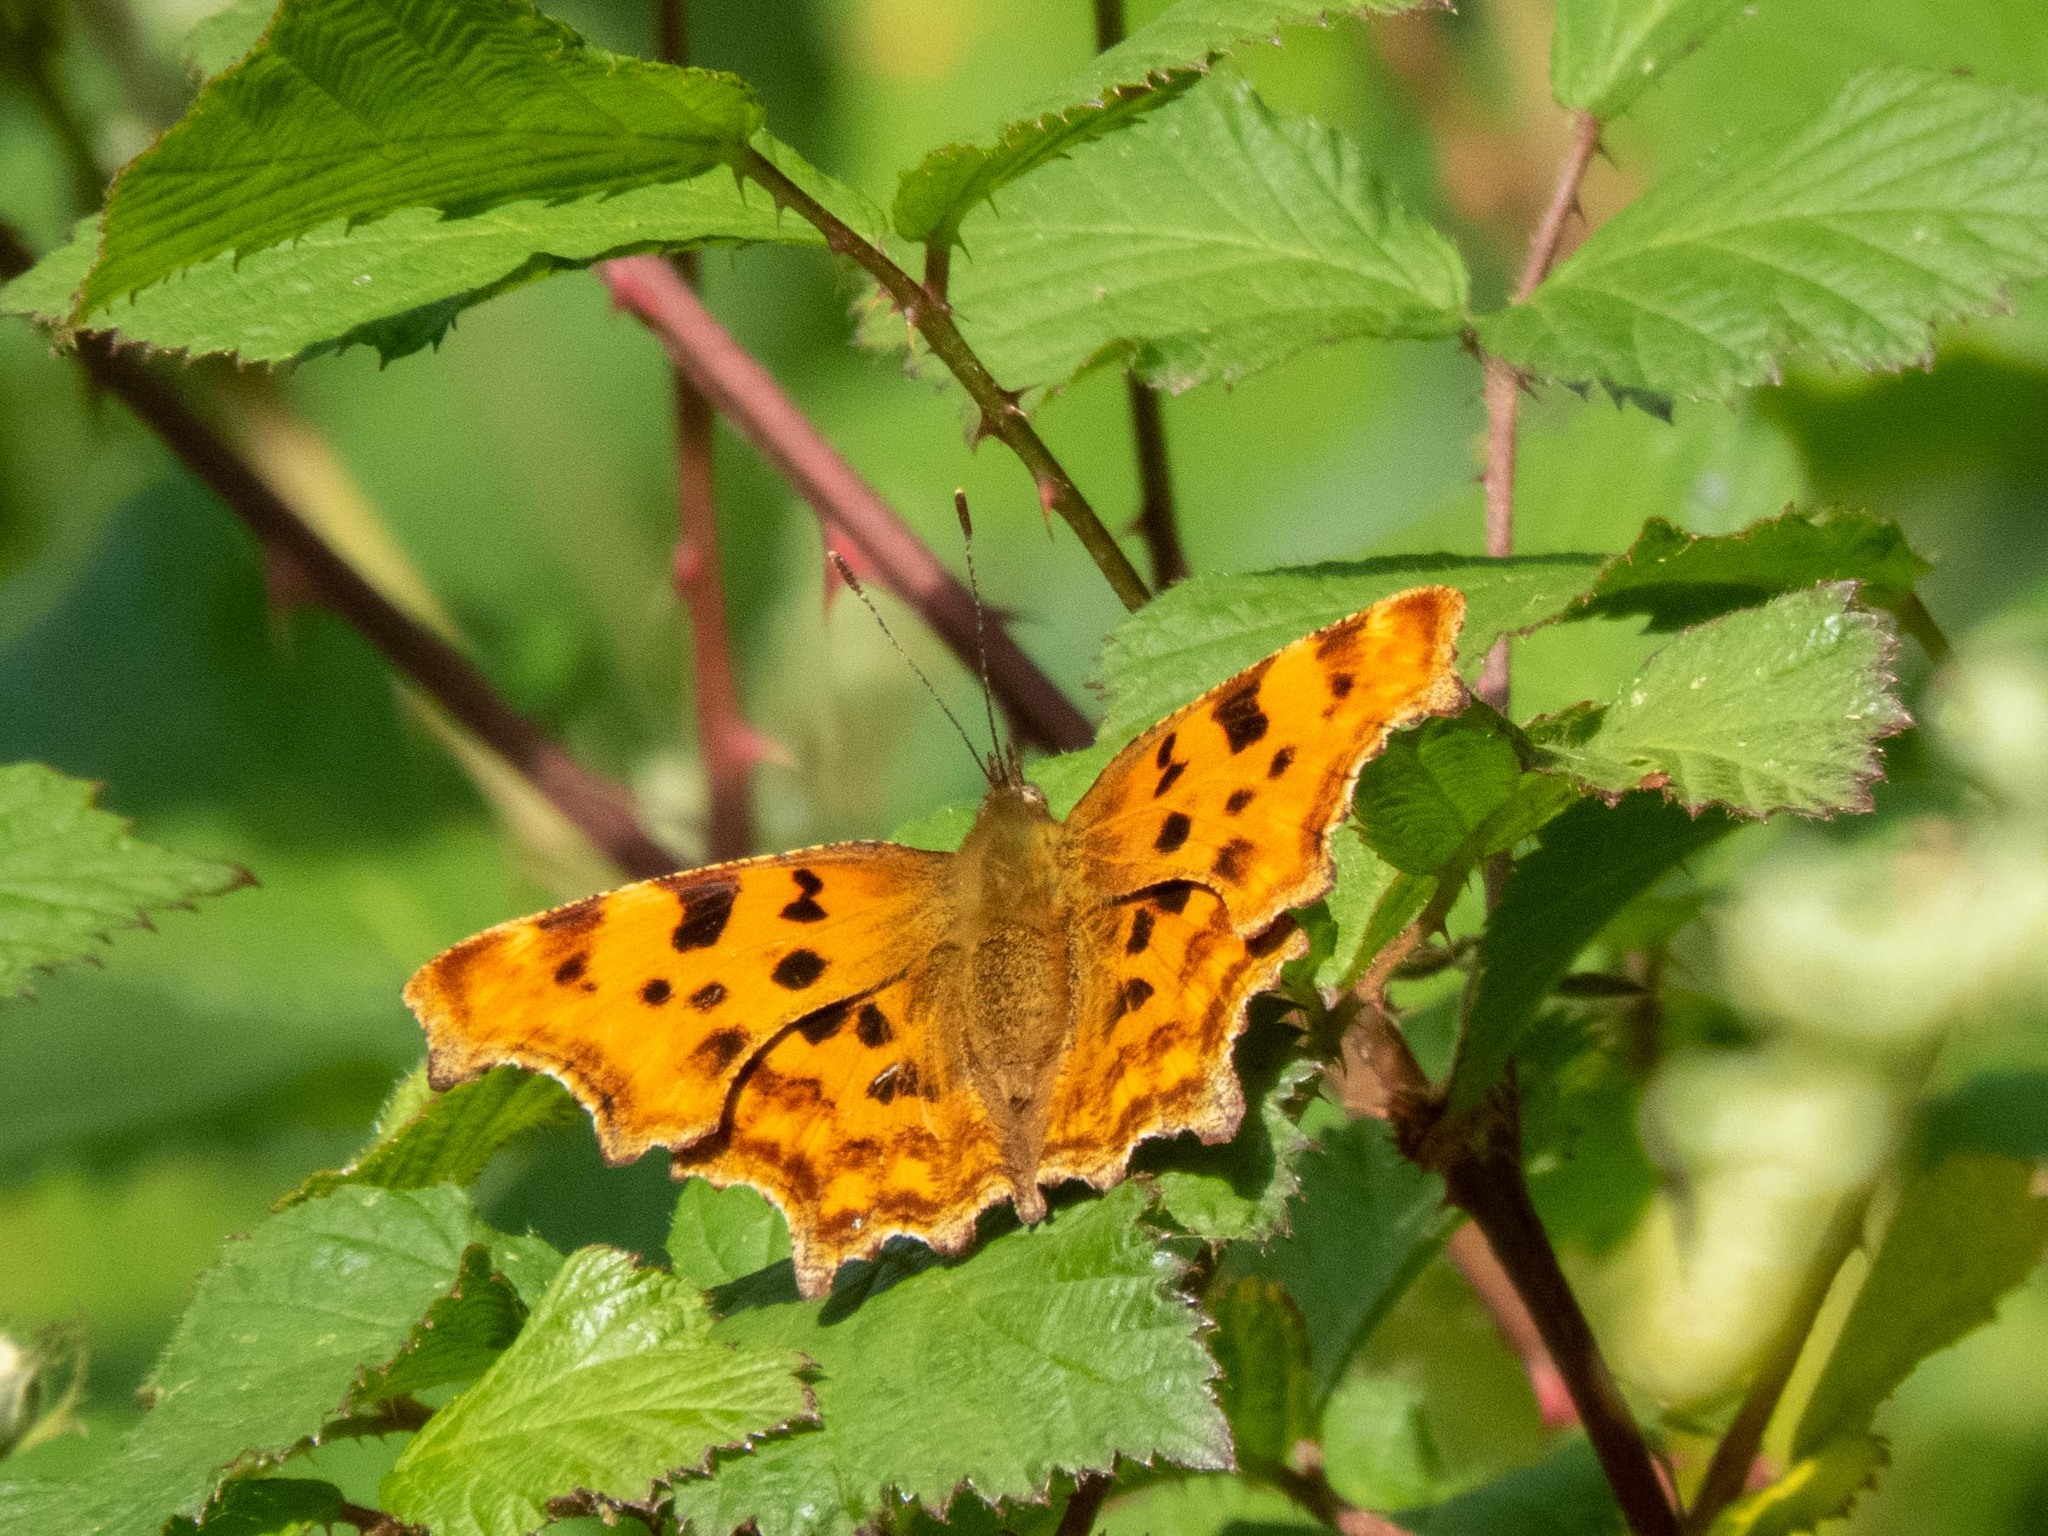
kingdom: Animalia
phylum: Arthropoda
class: Insecta
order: Lepidoptera
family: Nymphalidae
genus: Polygonia
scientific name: Polygonia c-album
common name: Comma
